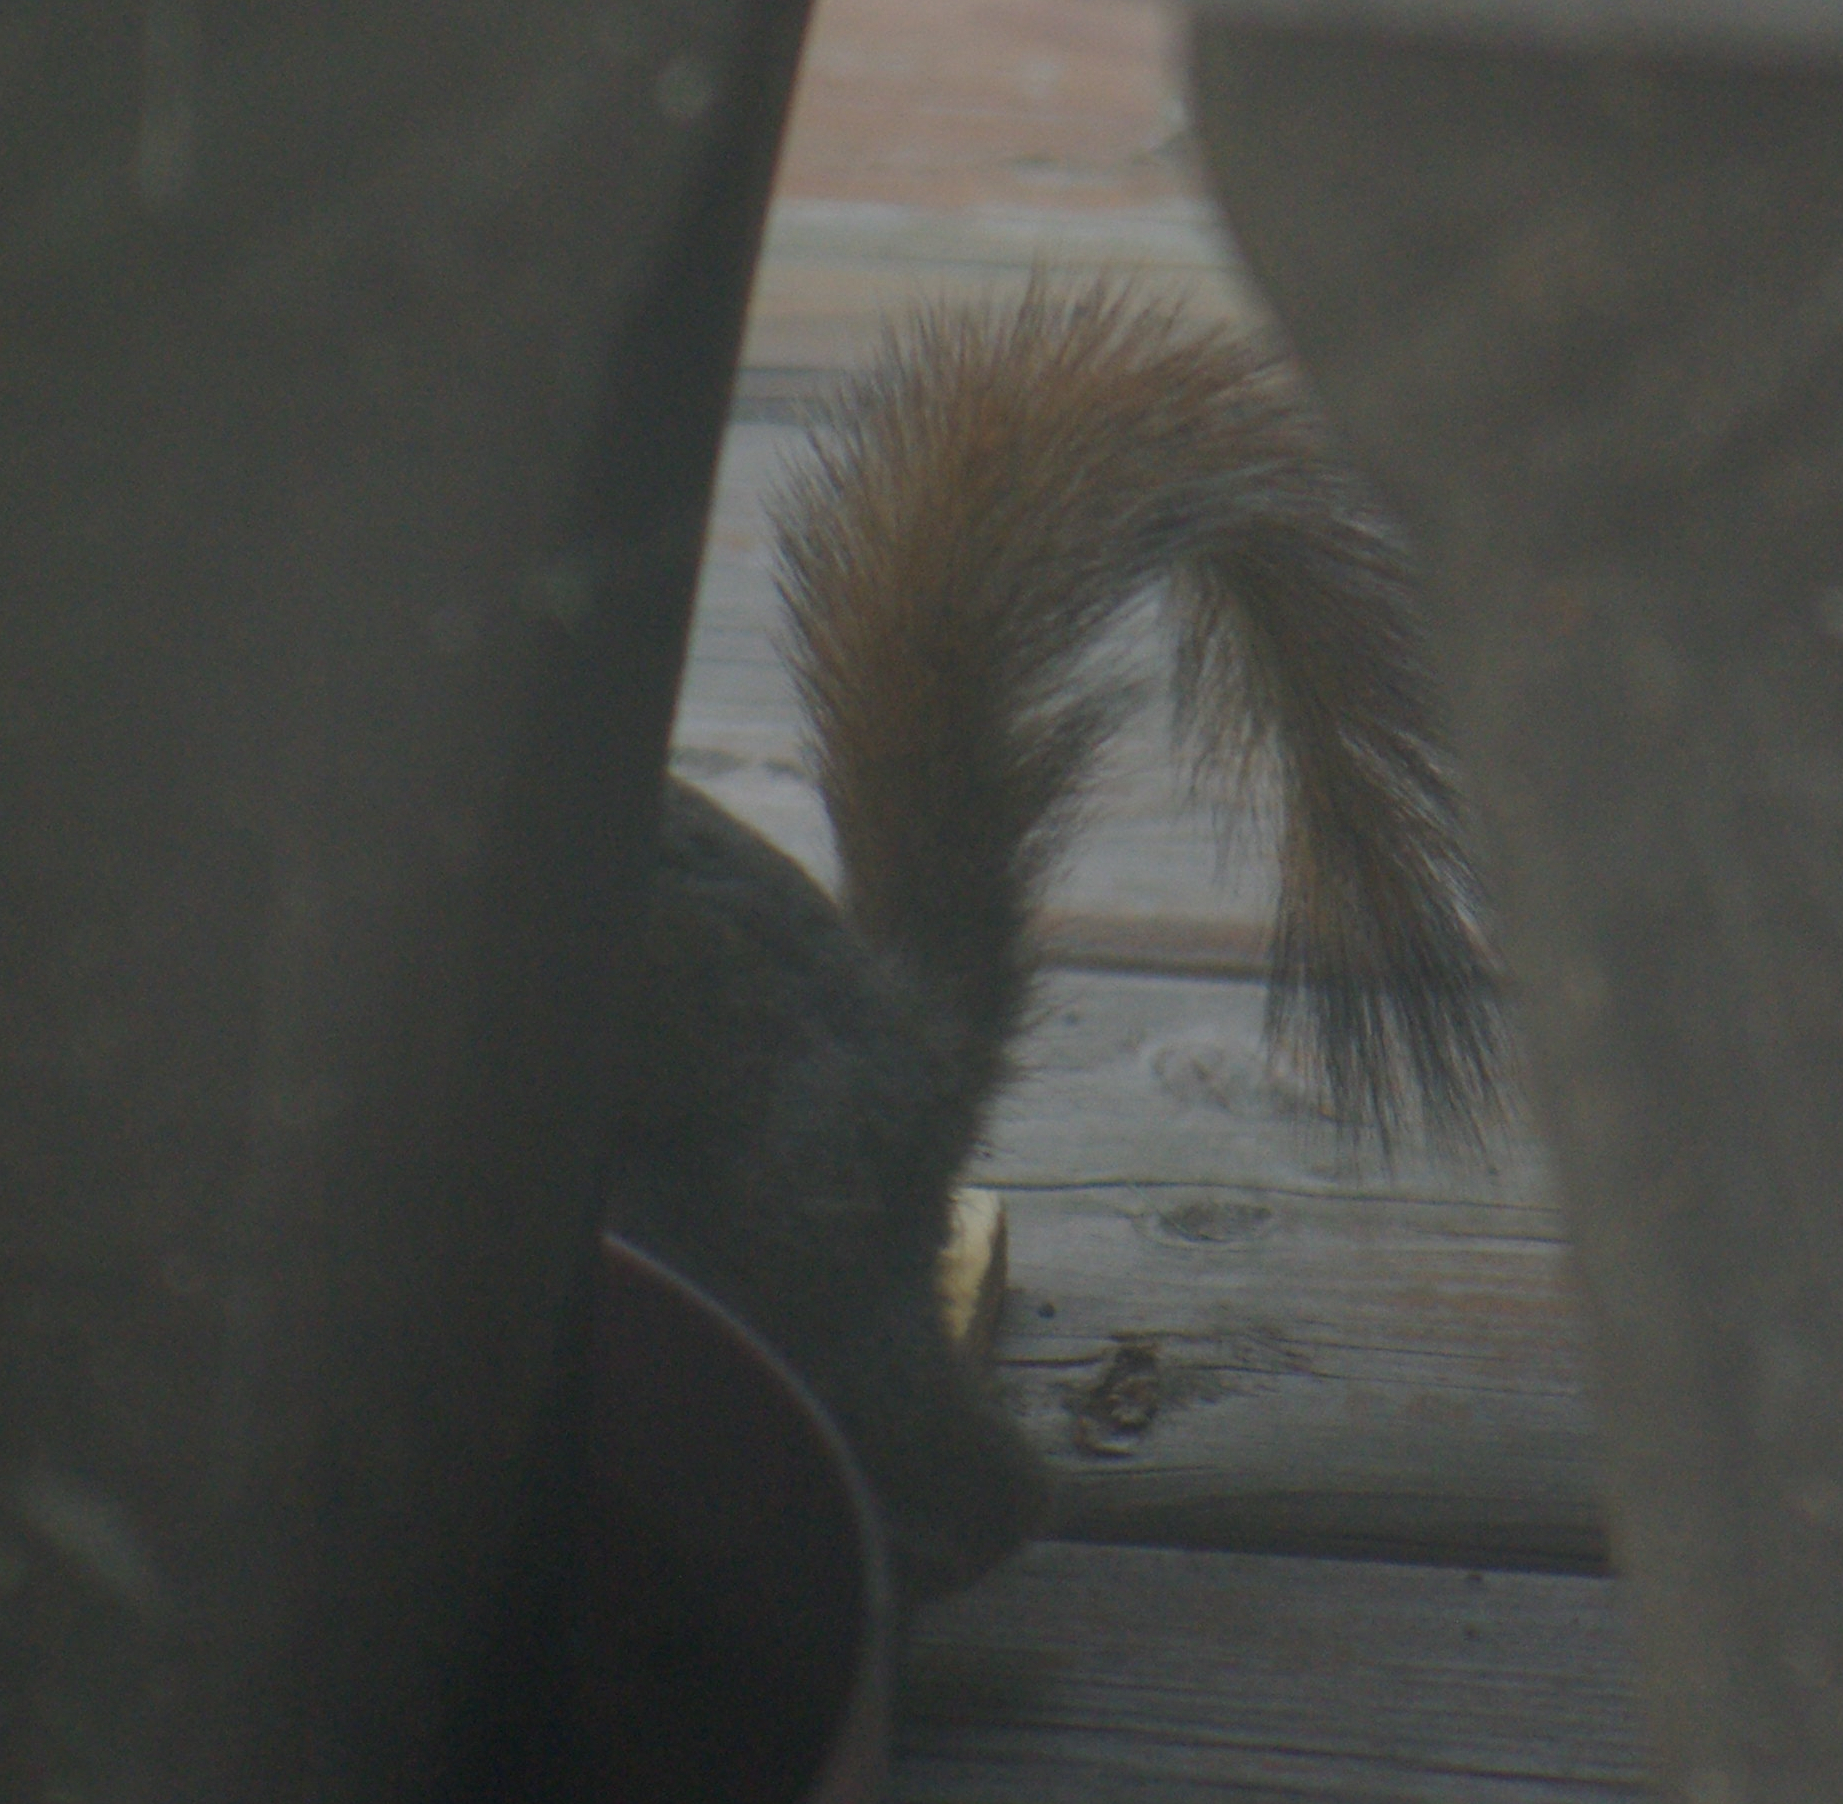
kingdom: Animalia
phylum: Chordata
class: Mammalia
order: Rodentia
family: Sciuridae
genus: Tamiasciurus
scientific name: Tamiasciurus hudsonicus
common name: Red squirrel
